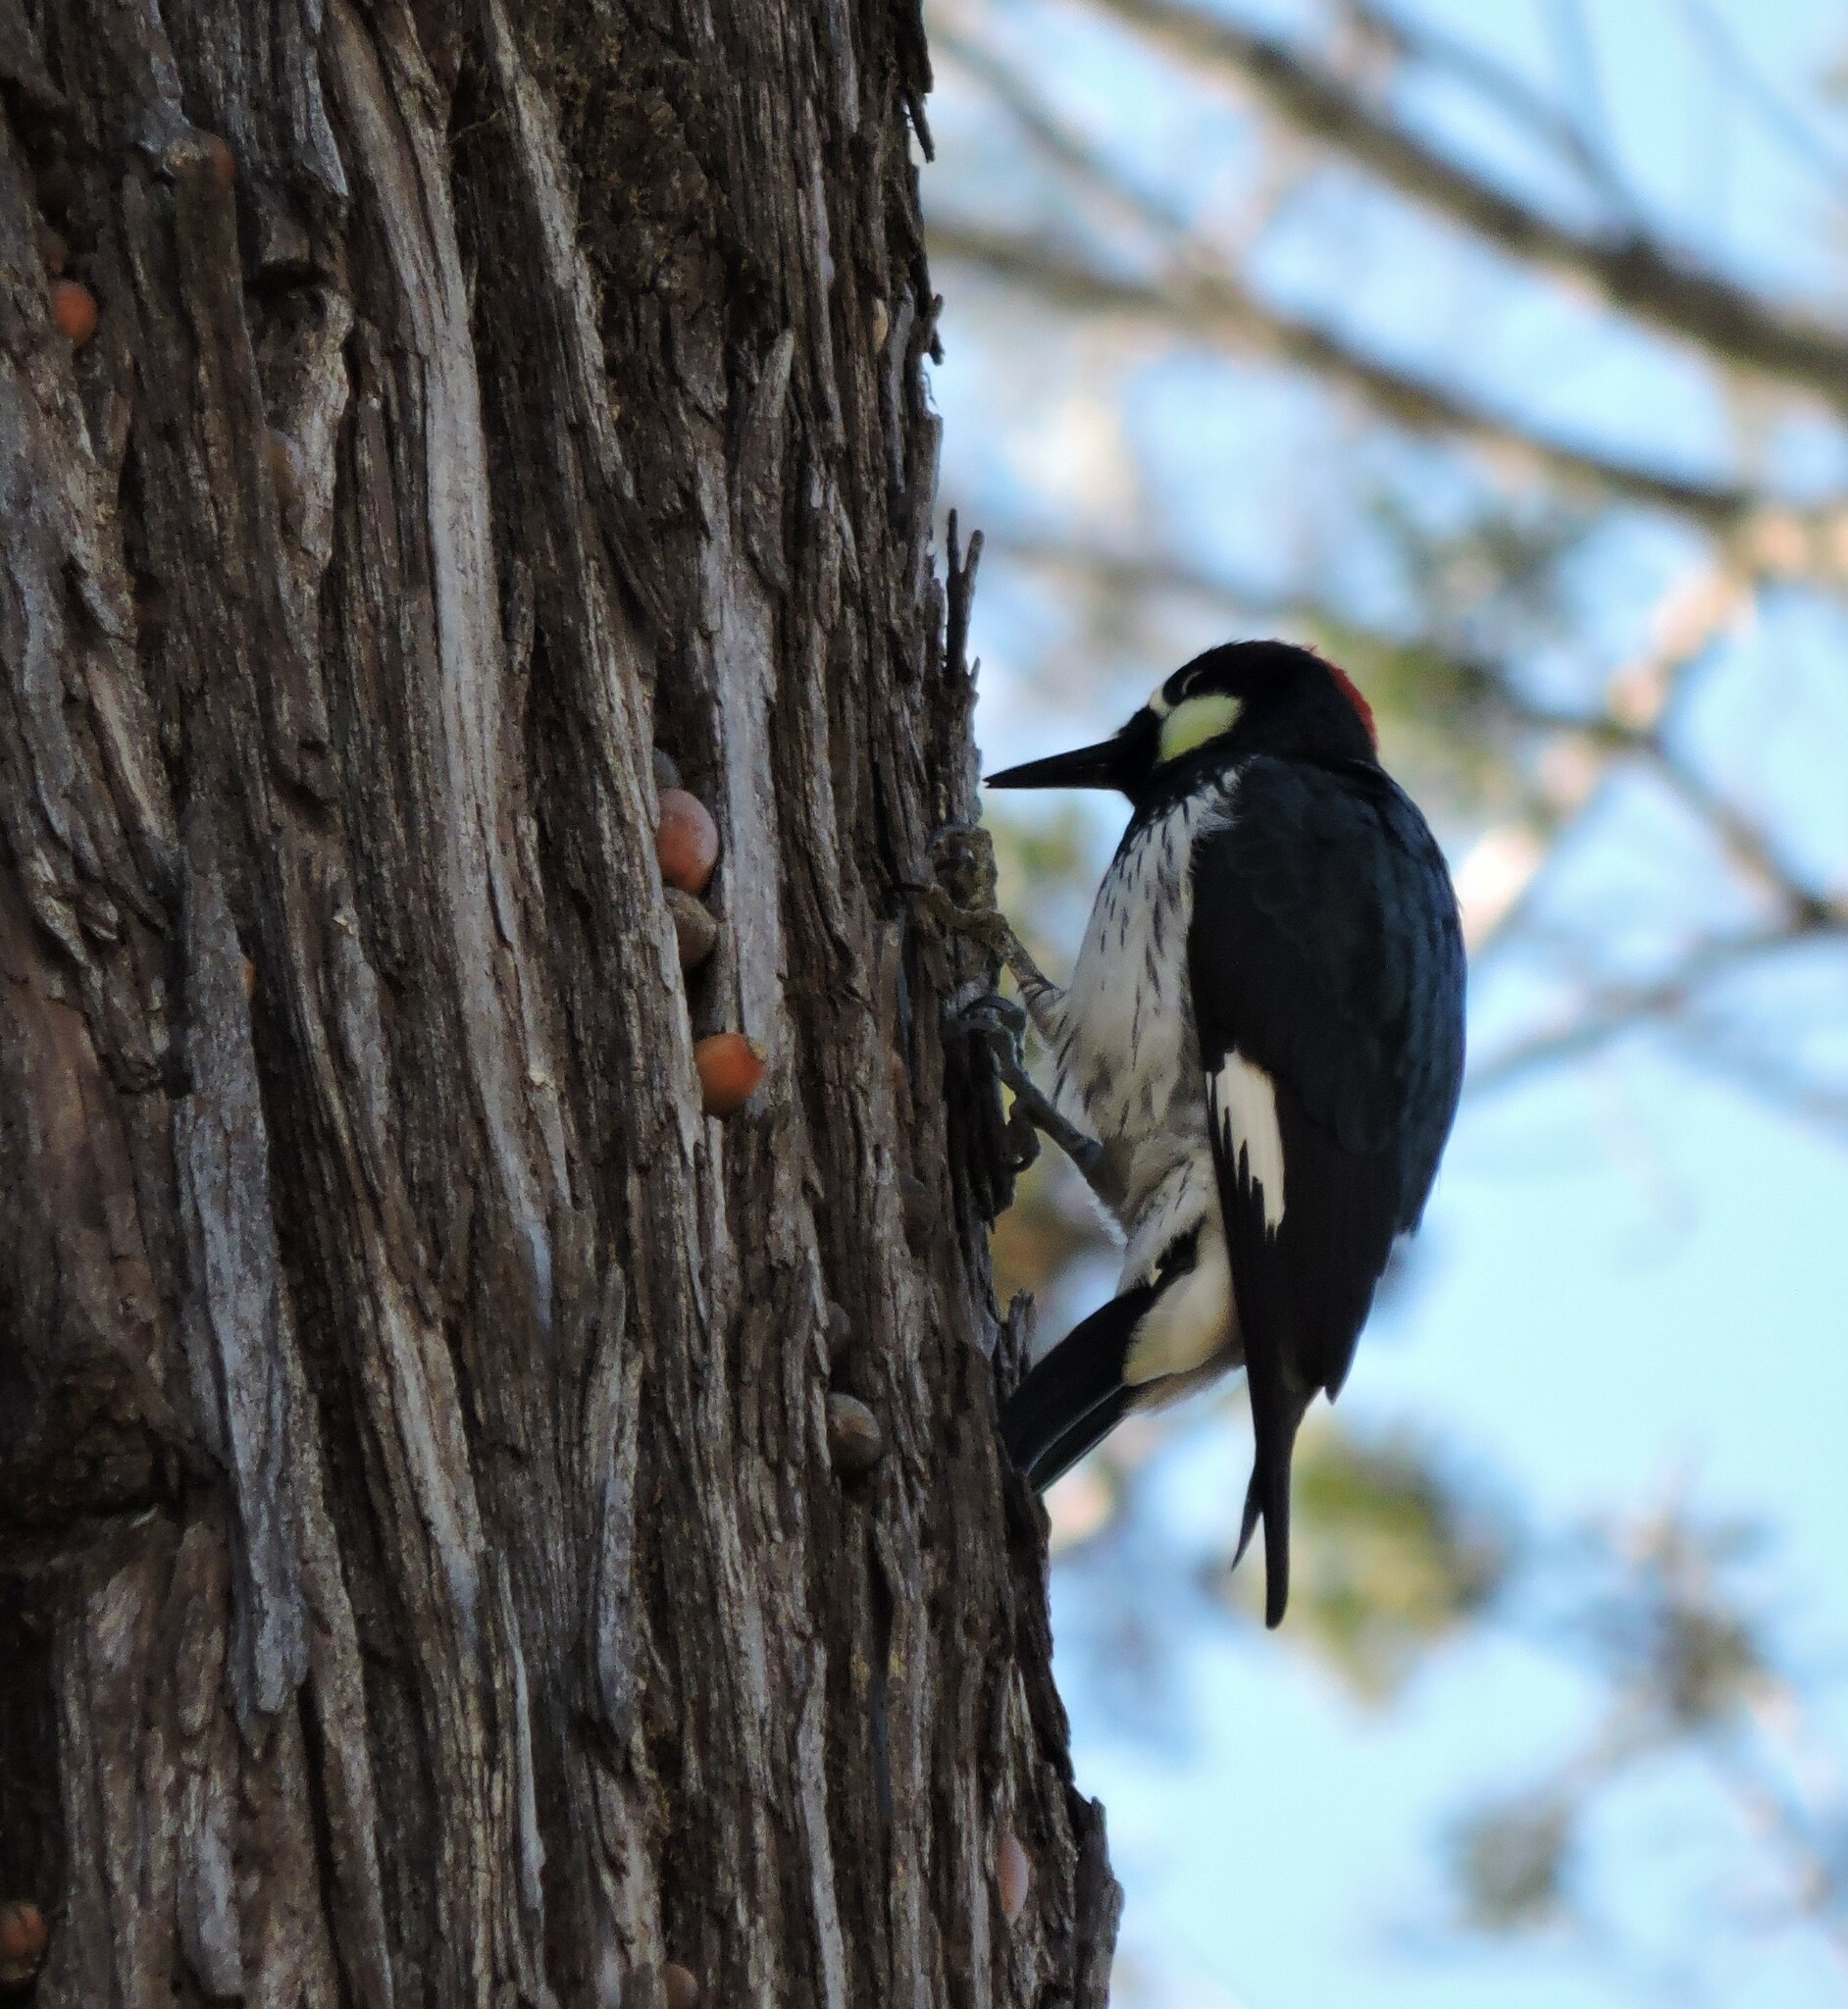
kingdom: Animalia
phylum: Chordata
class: Aves
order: Piciformes
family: Picidae
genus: Melanerpes
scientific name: Melanerpes formicivorus
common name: Acorn woodpecker
